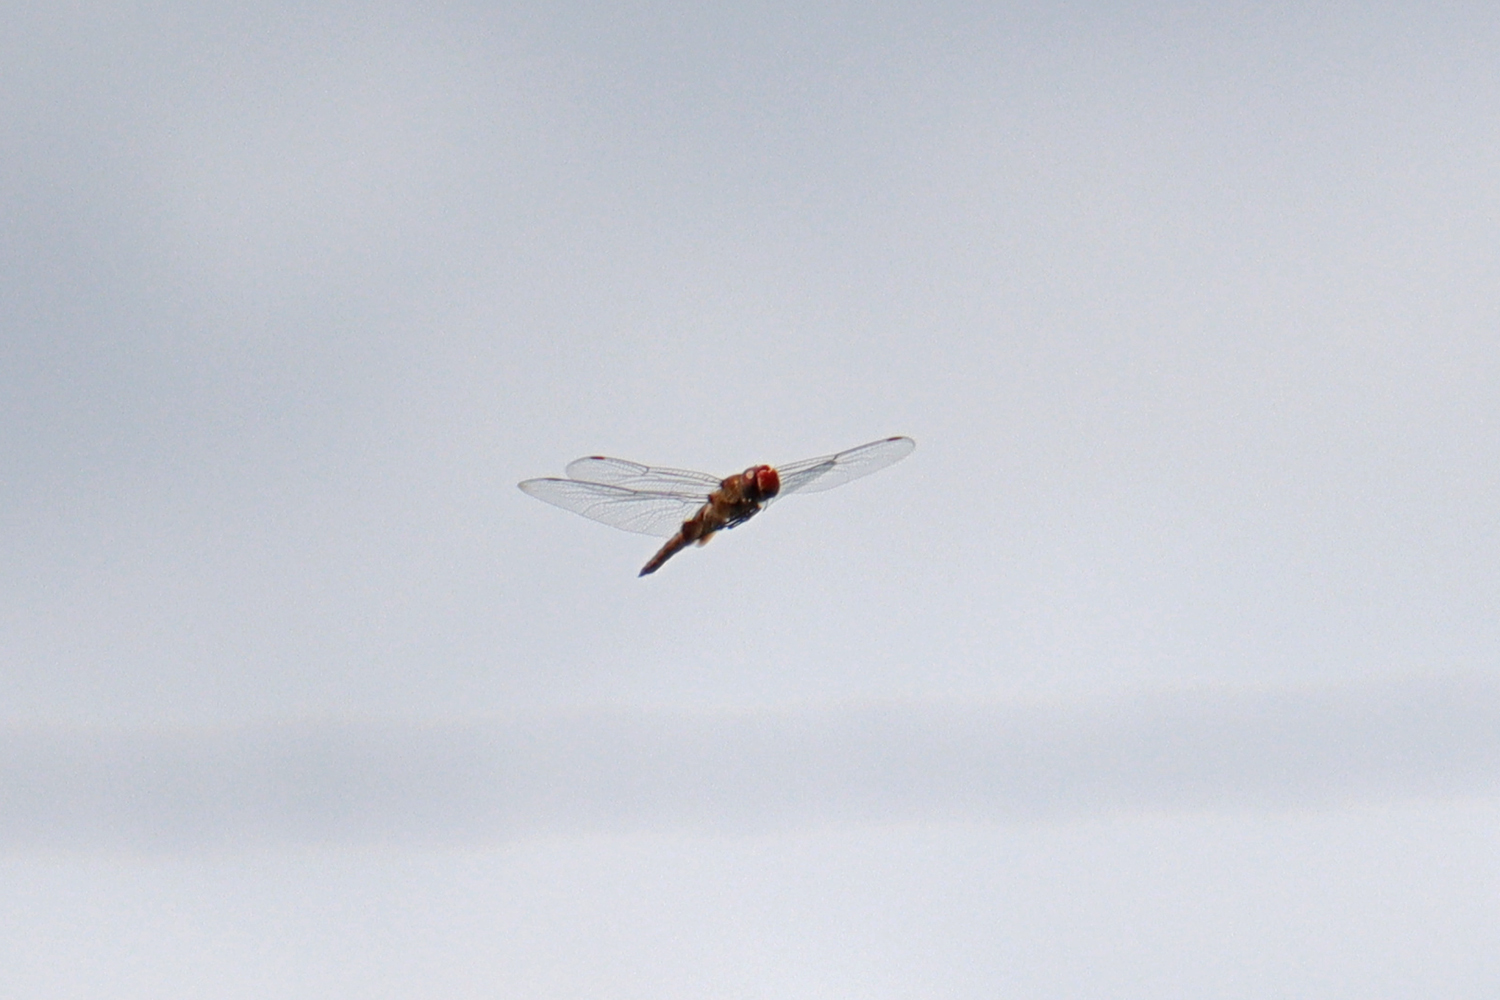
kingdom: Animalia
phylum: Arthropoda
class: Insecta
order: Odonata
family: Libellulidae
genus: Pantala
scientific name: Pantala hymenaea
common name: Spot-winged glider
